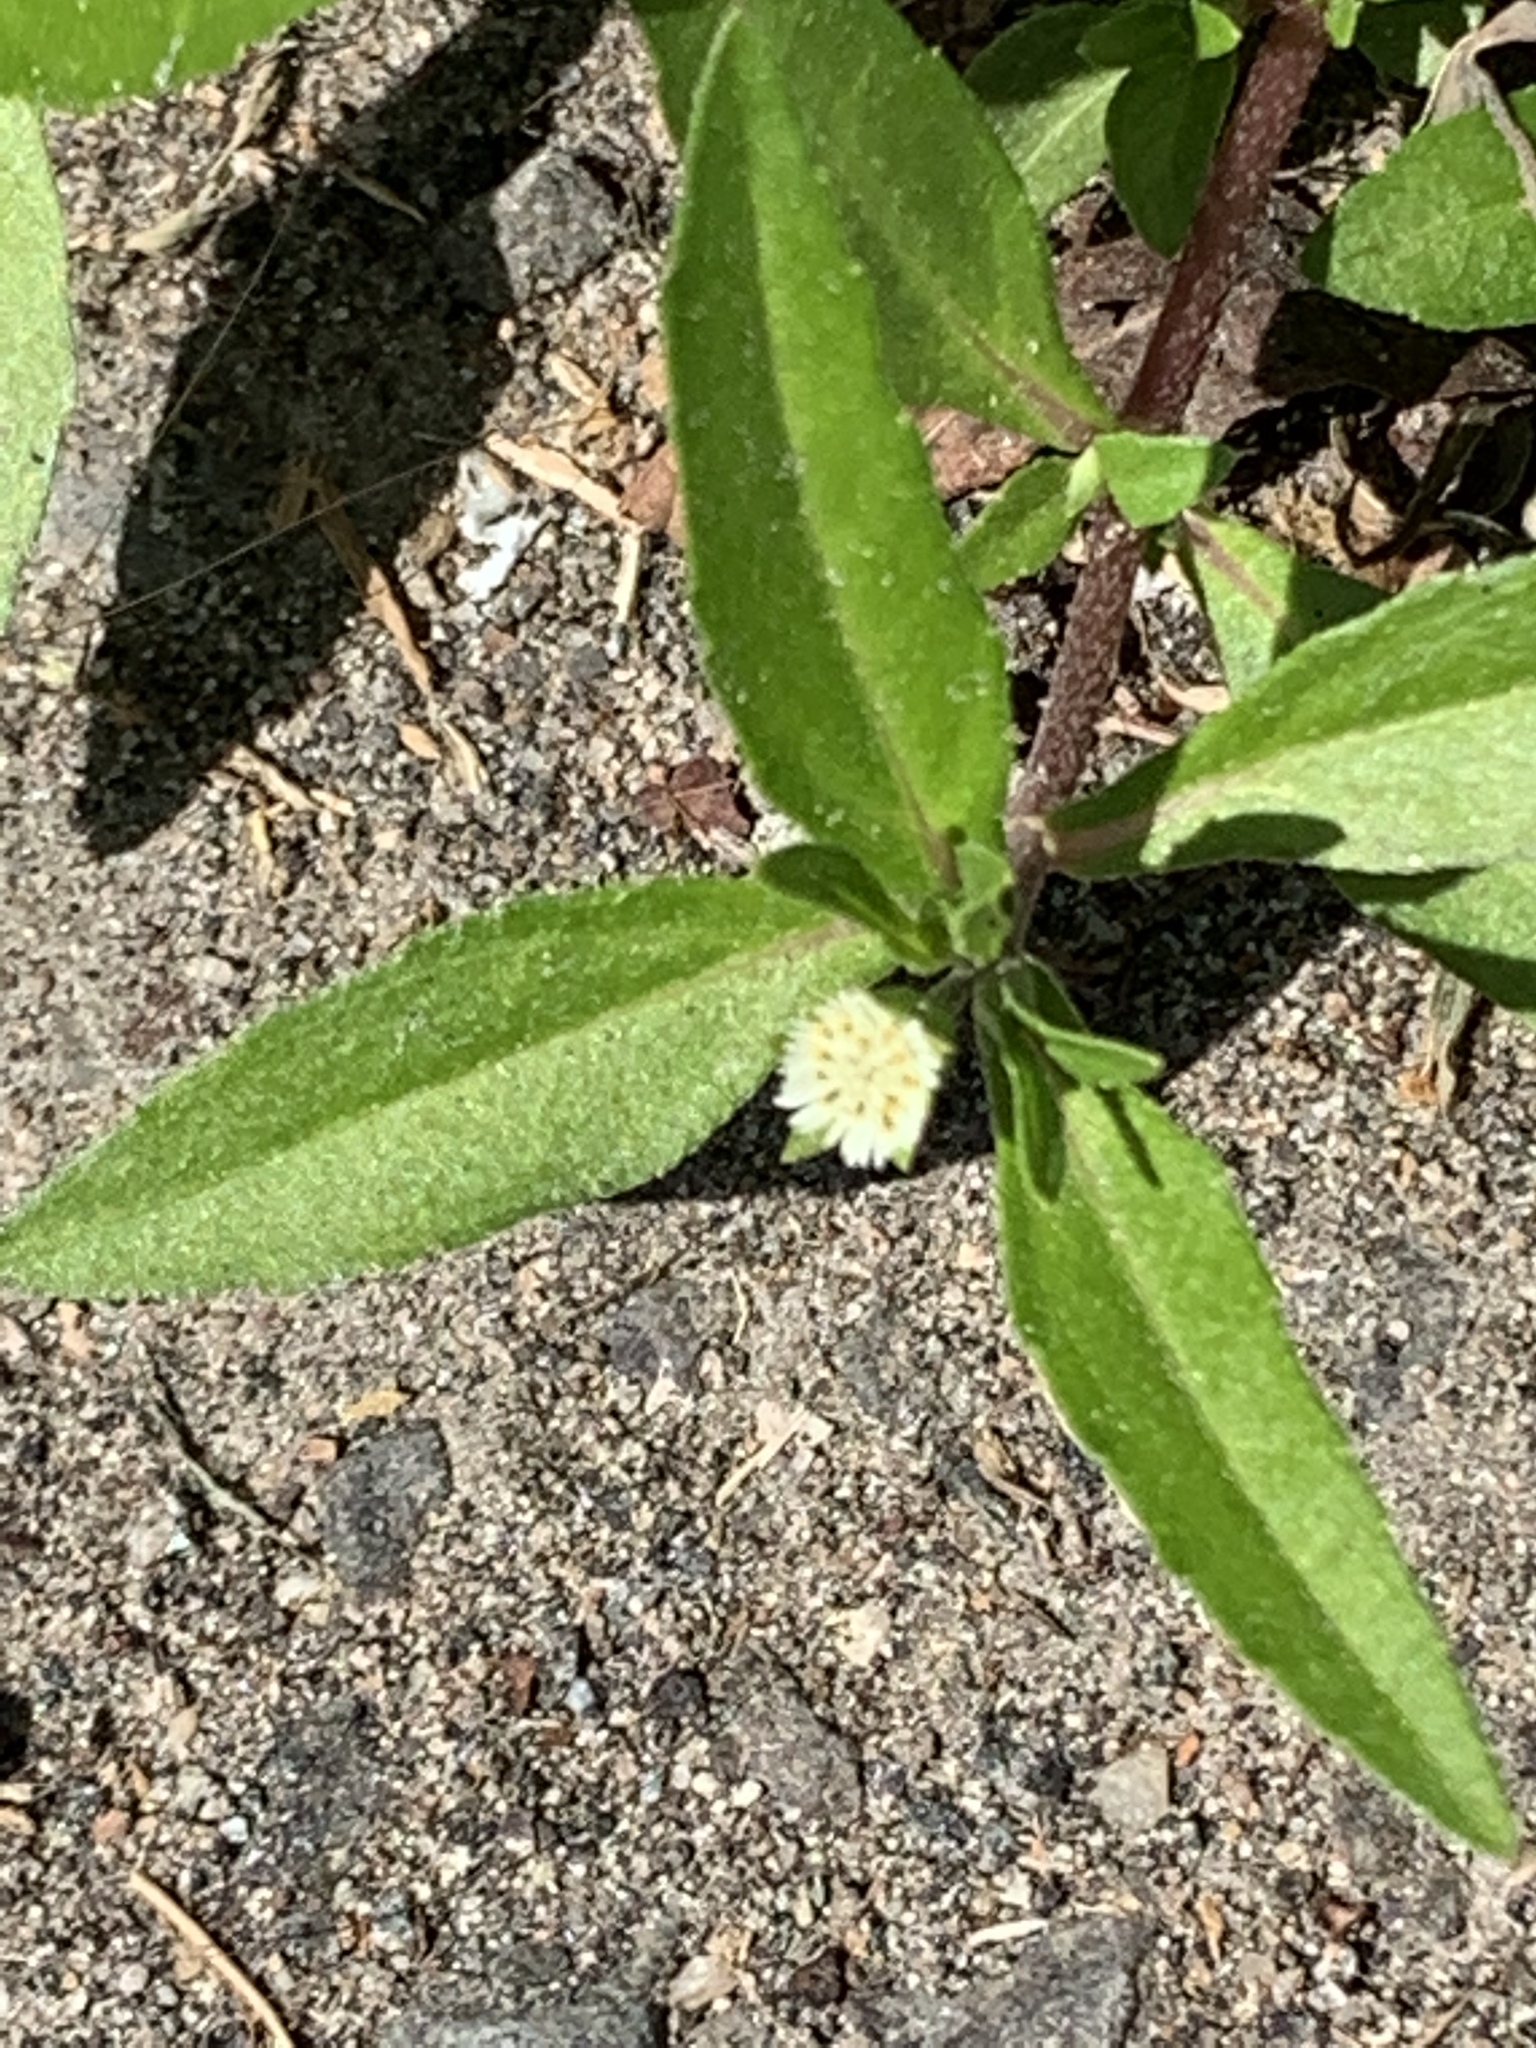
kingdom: Plantae
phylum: Tracheophyta
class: Magnoliopsida
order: Asterales
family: Asteraceae
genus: Eclipta
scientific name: Eclipta prostrata
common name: False daisy
